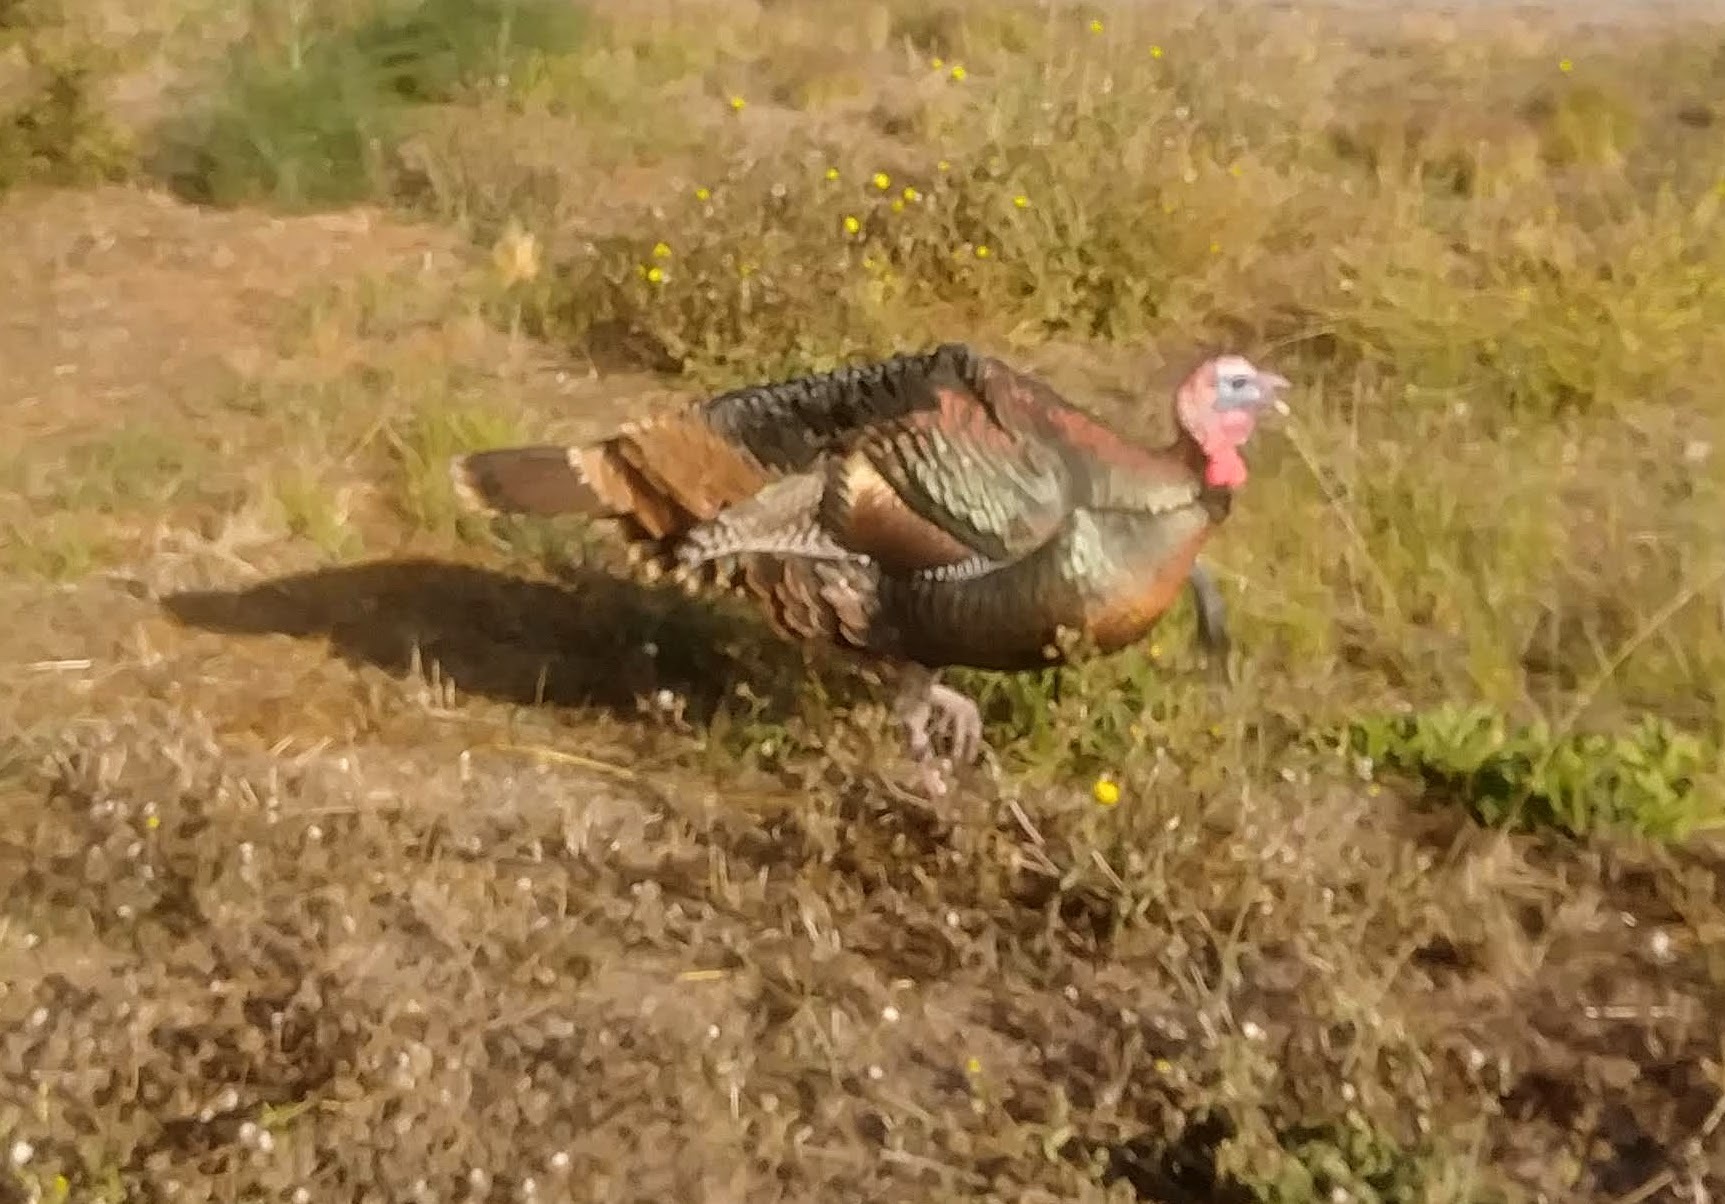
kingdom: Animalia
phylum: Chordata
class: Aves
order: Galliformes
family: Phasianidae
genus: Meleagris
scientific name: Meleagris gallopavo
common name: Wild turkey
